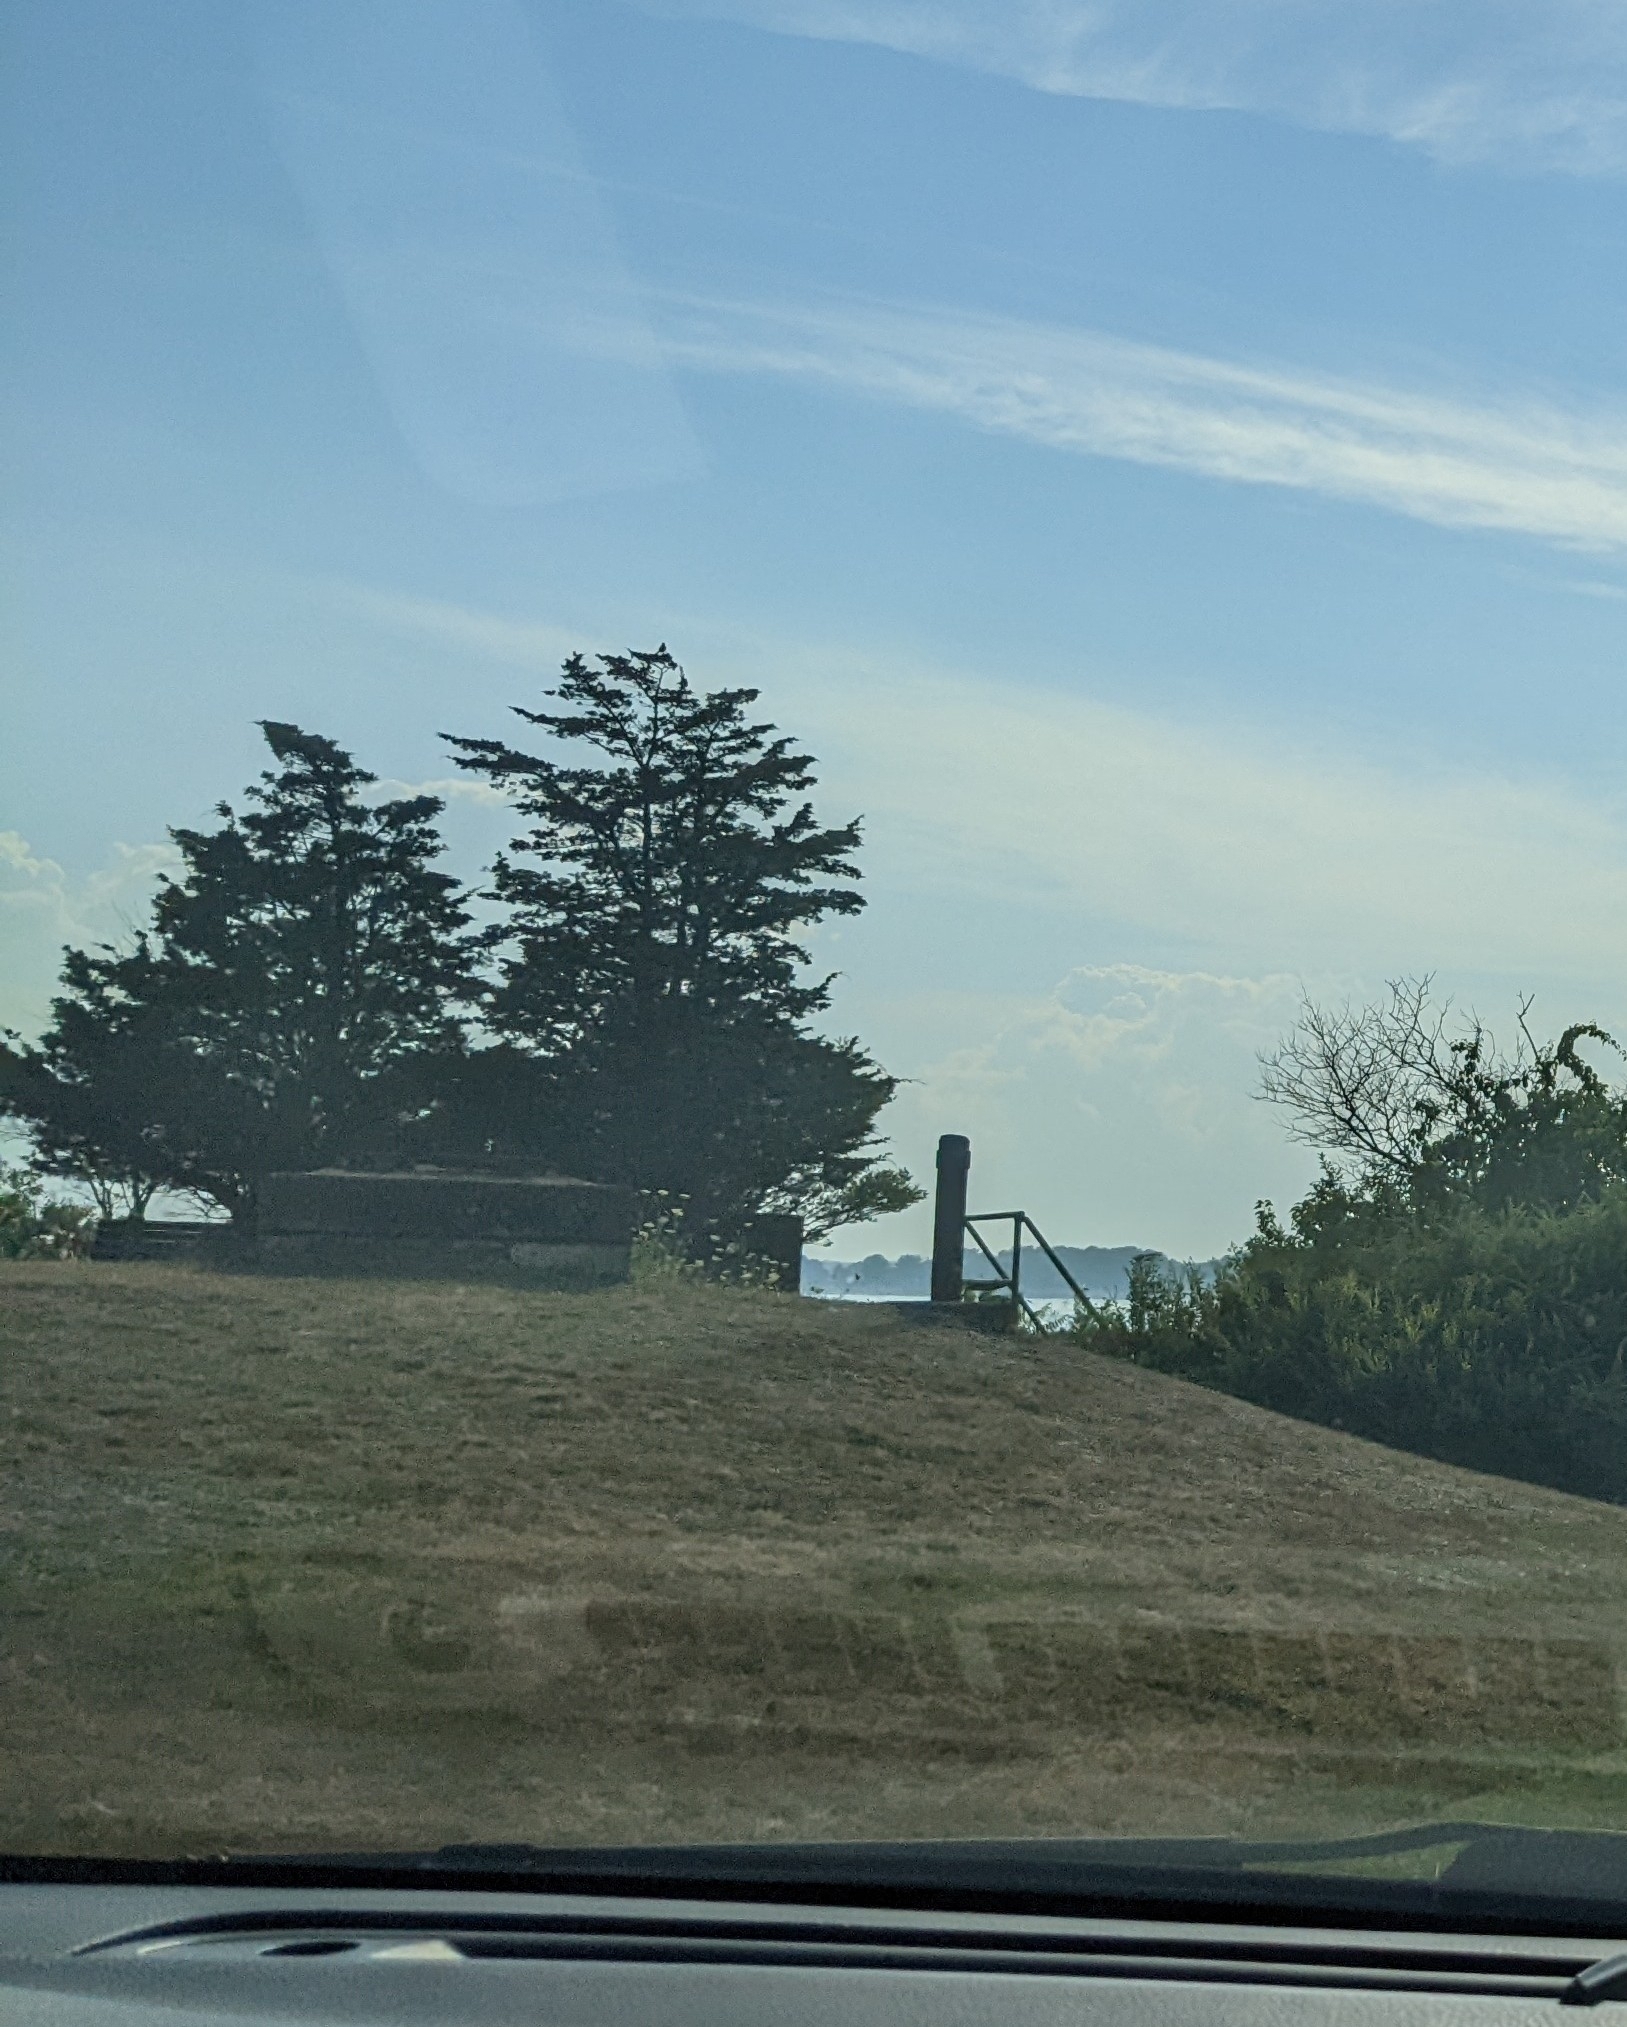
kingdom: Plantae
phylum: Tracheophyta
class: Pinopsida
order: Pinales
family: Pinaceae
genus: Pinus
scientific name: Pinus strobus
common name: Weymouth pine
